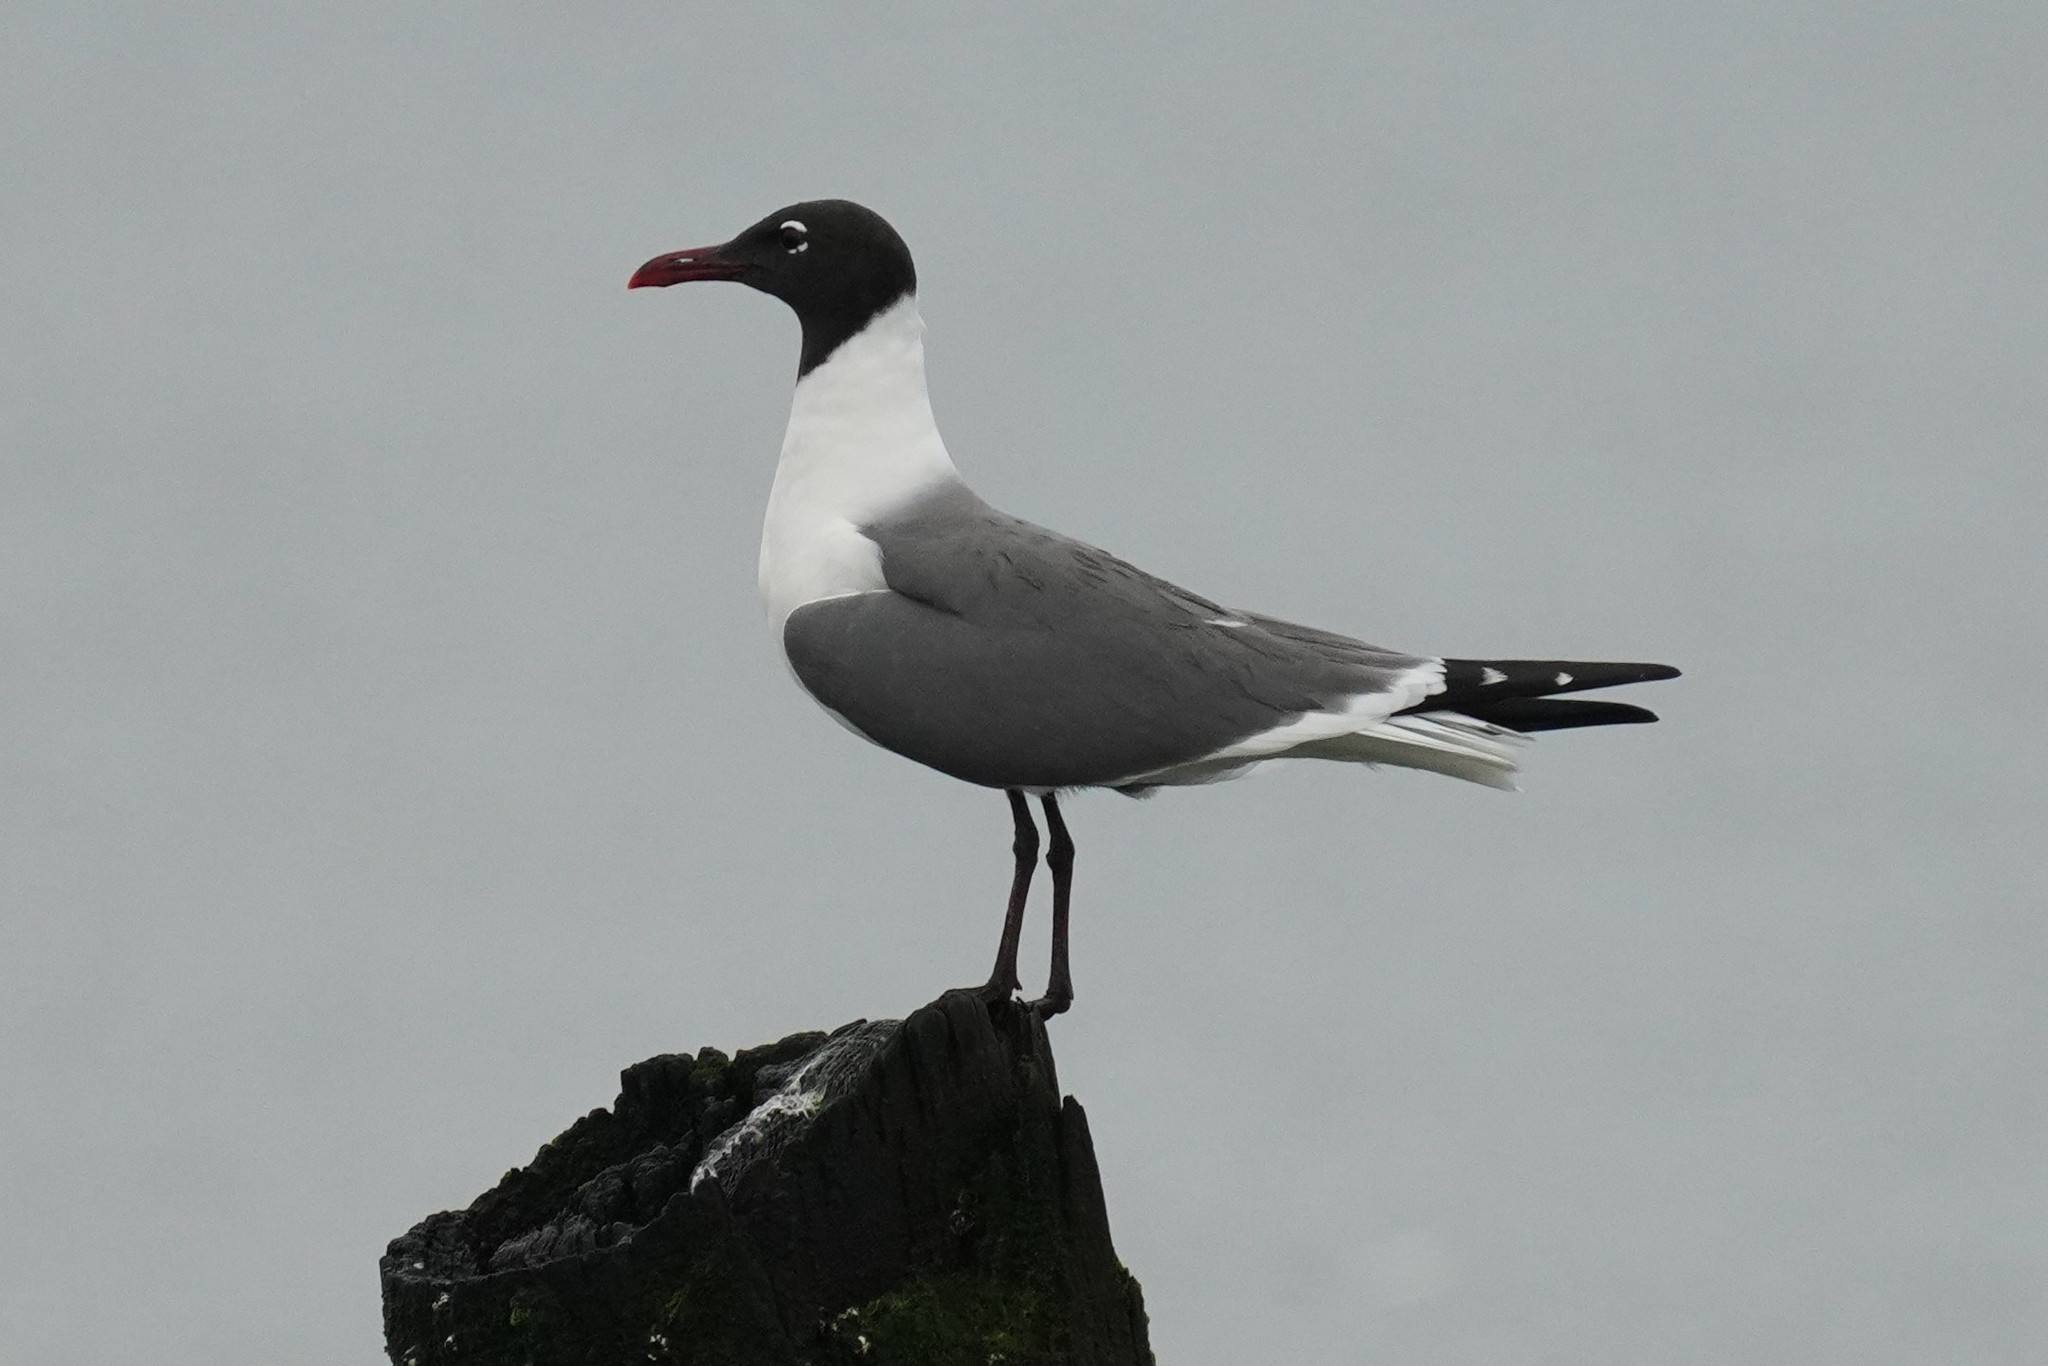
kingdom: Animalia
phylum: Chordata
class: Aves
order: Charadriiformes
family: Laridae
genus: Leucophaeus
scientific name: Leucophaeus atricilla
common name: Laughing gull
